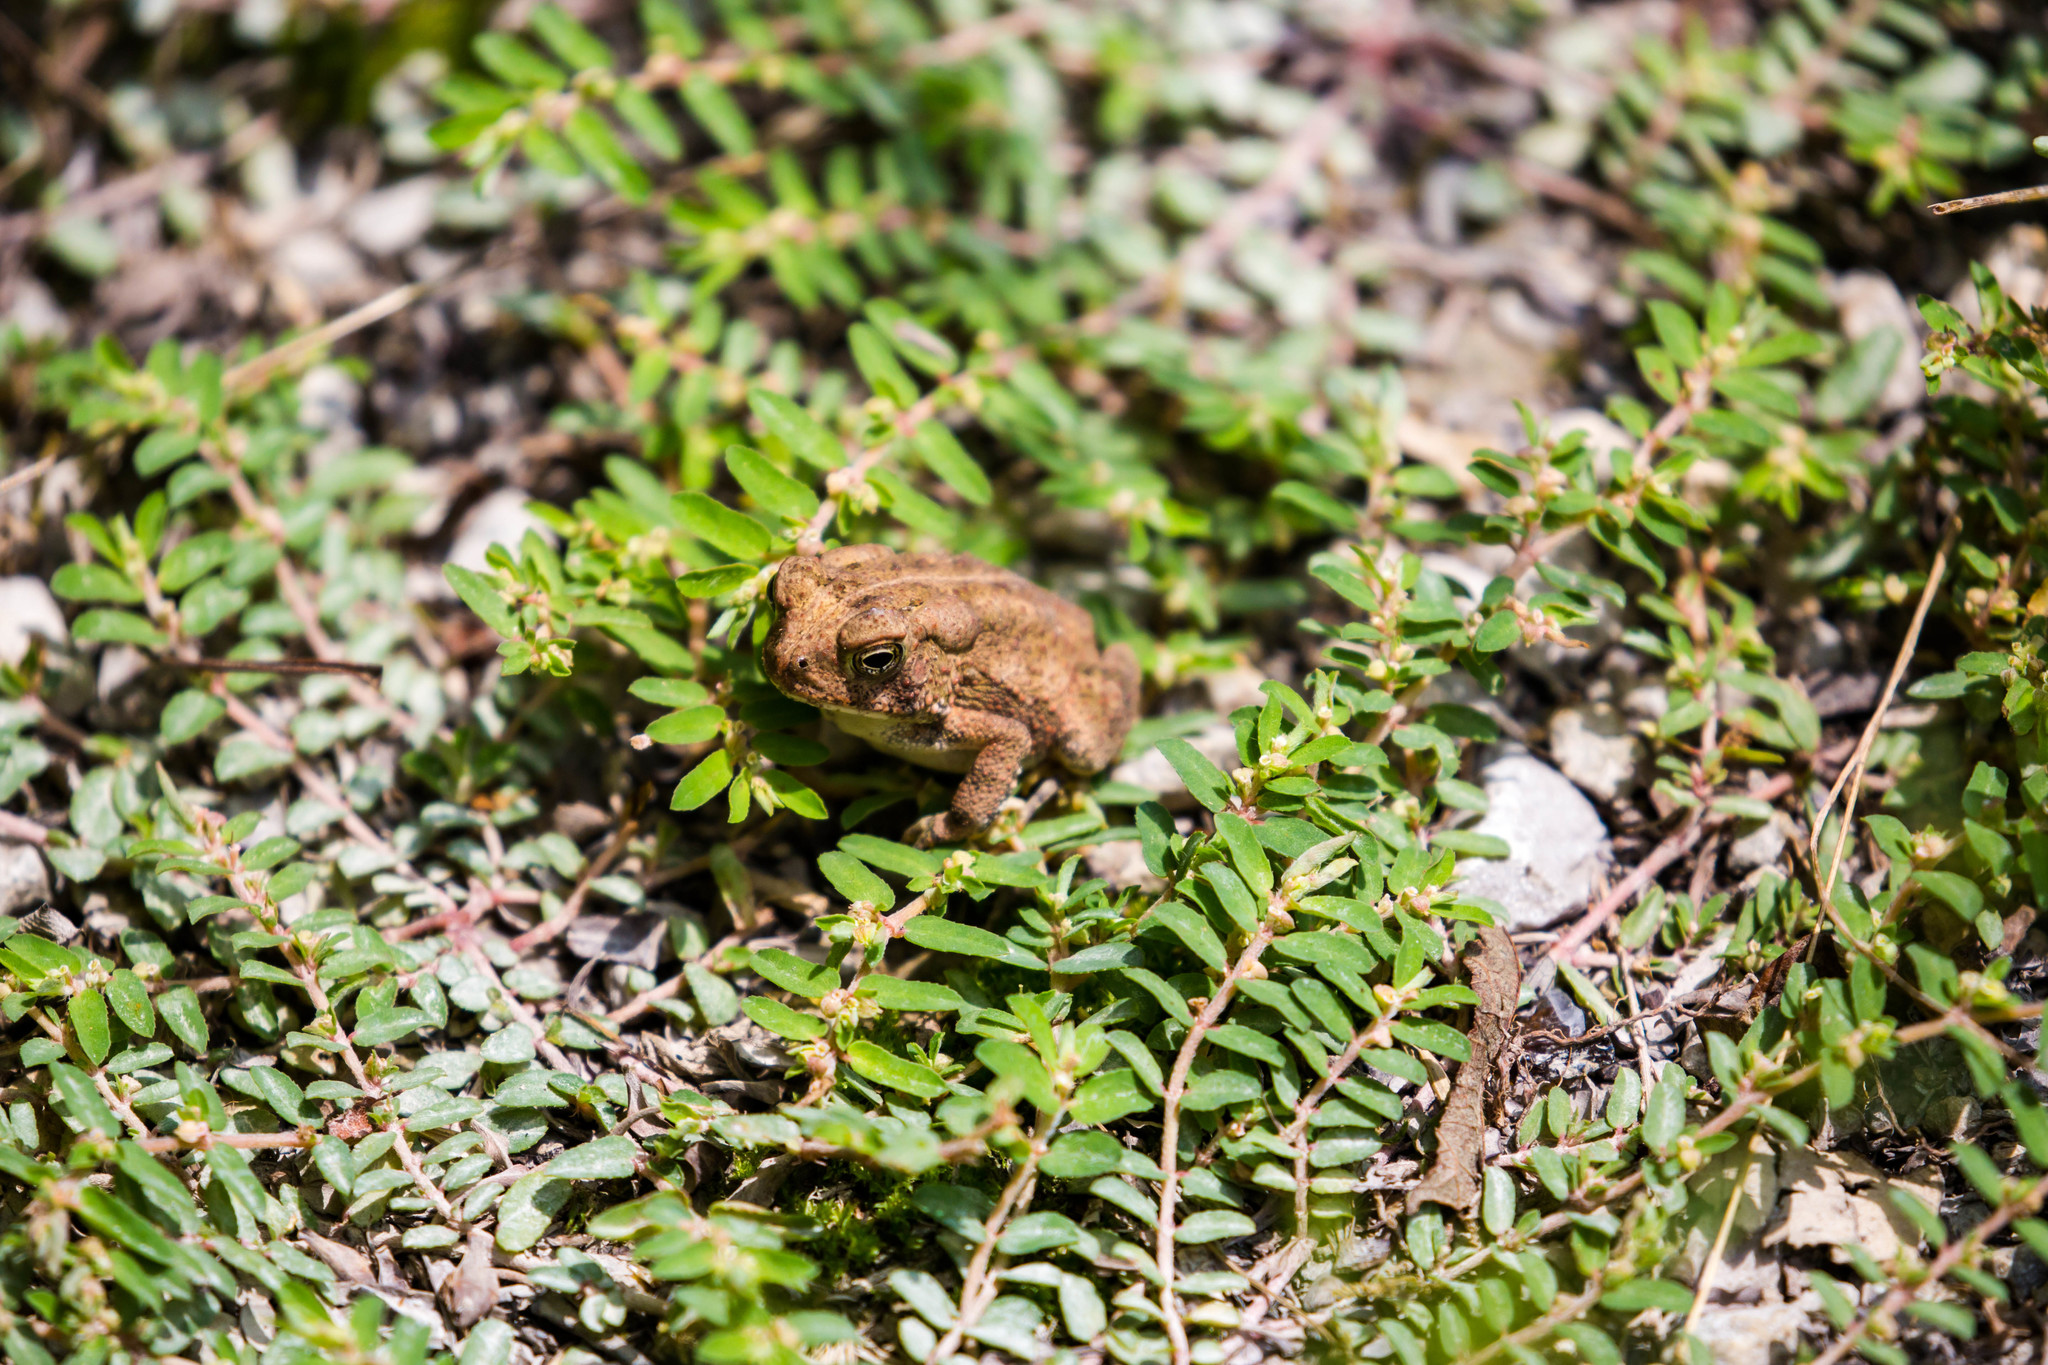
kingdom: Animalia
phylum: Chordata
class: Amphibia
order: Anura
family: Bufonidae
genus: Anaxyrus
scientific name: Anaxyrus americanus
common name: American toad
